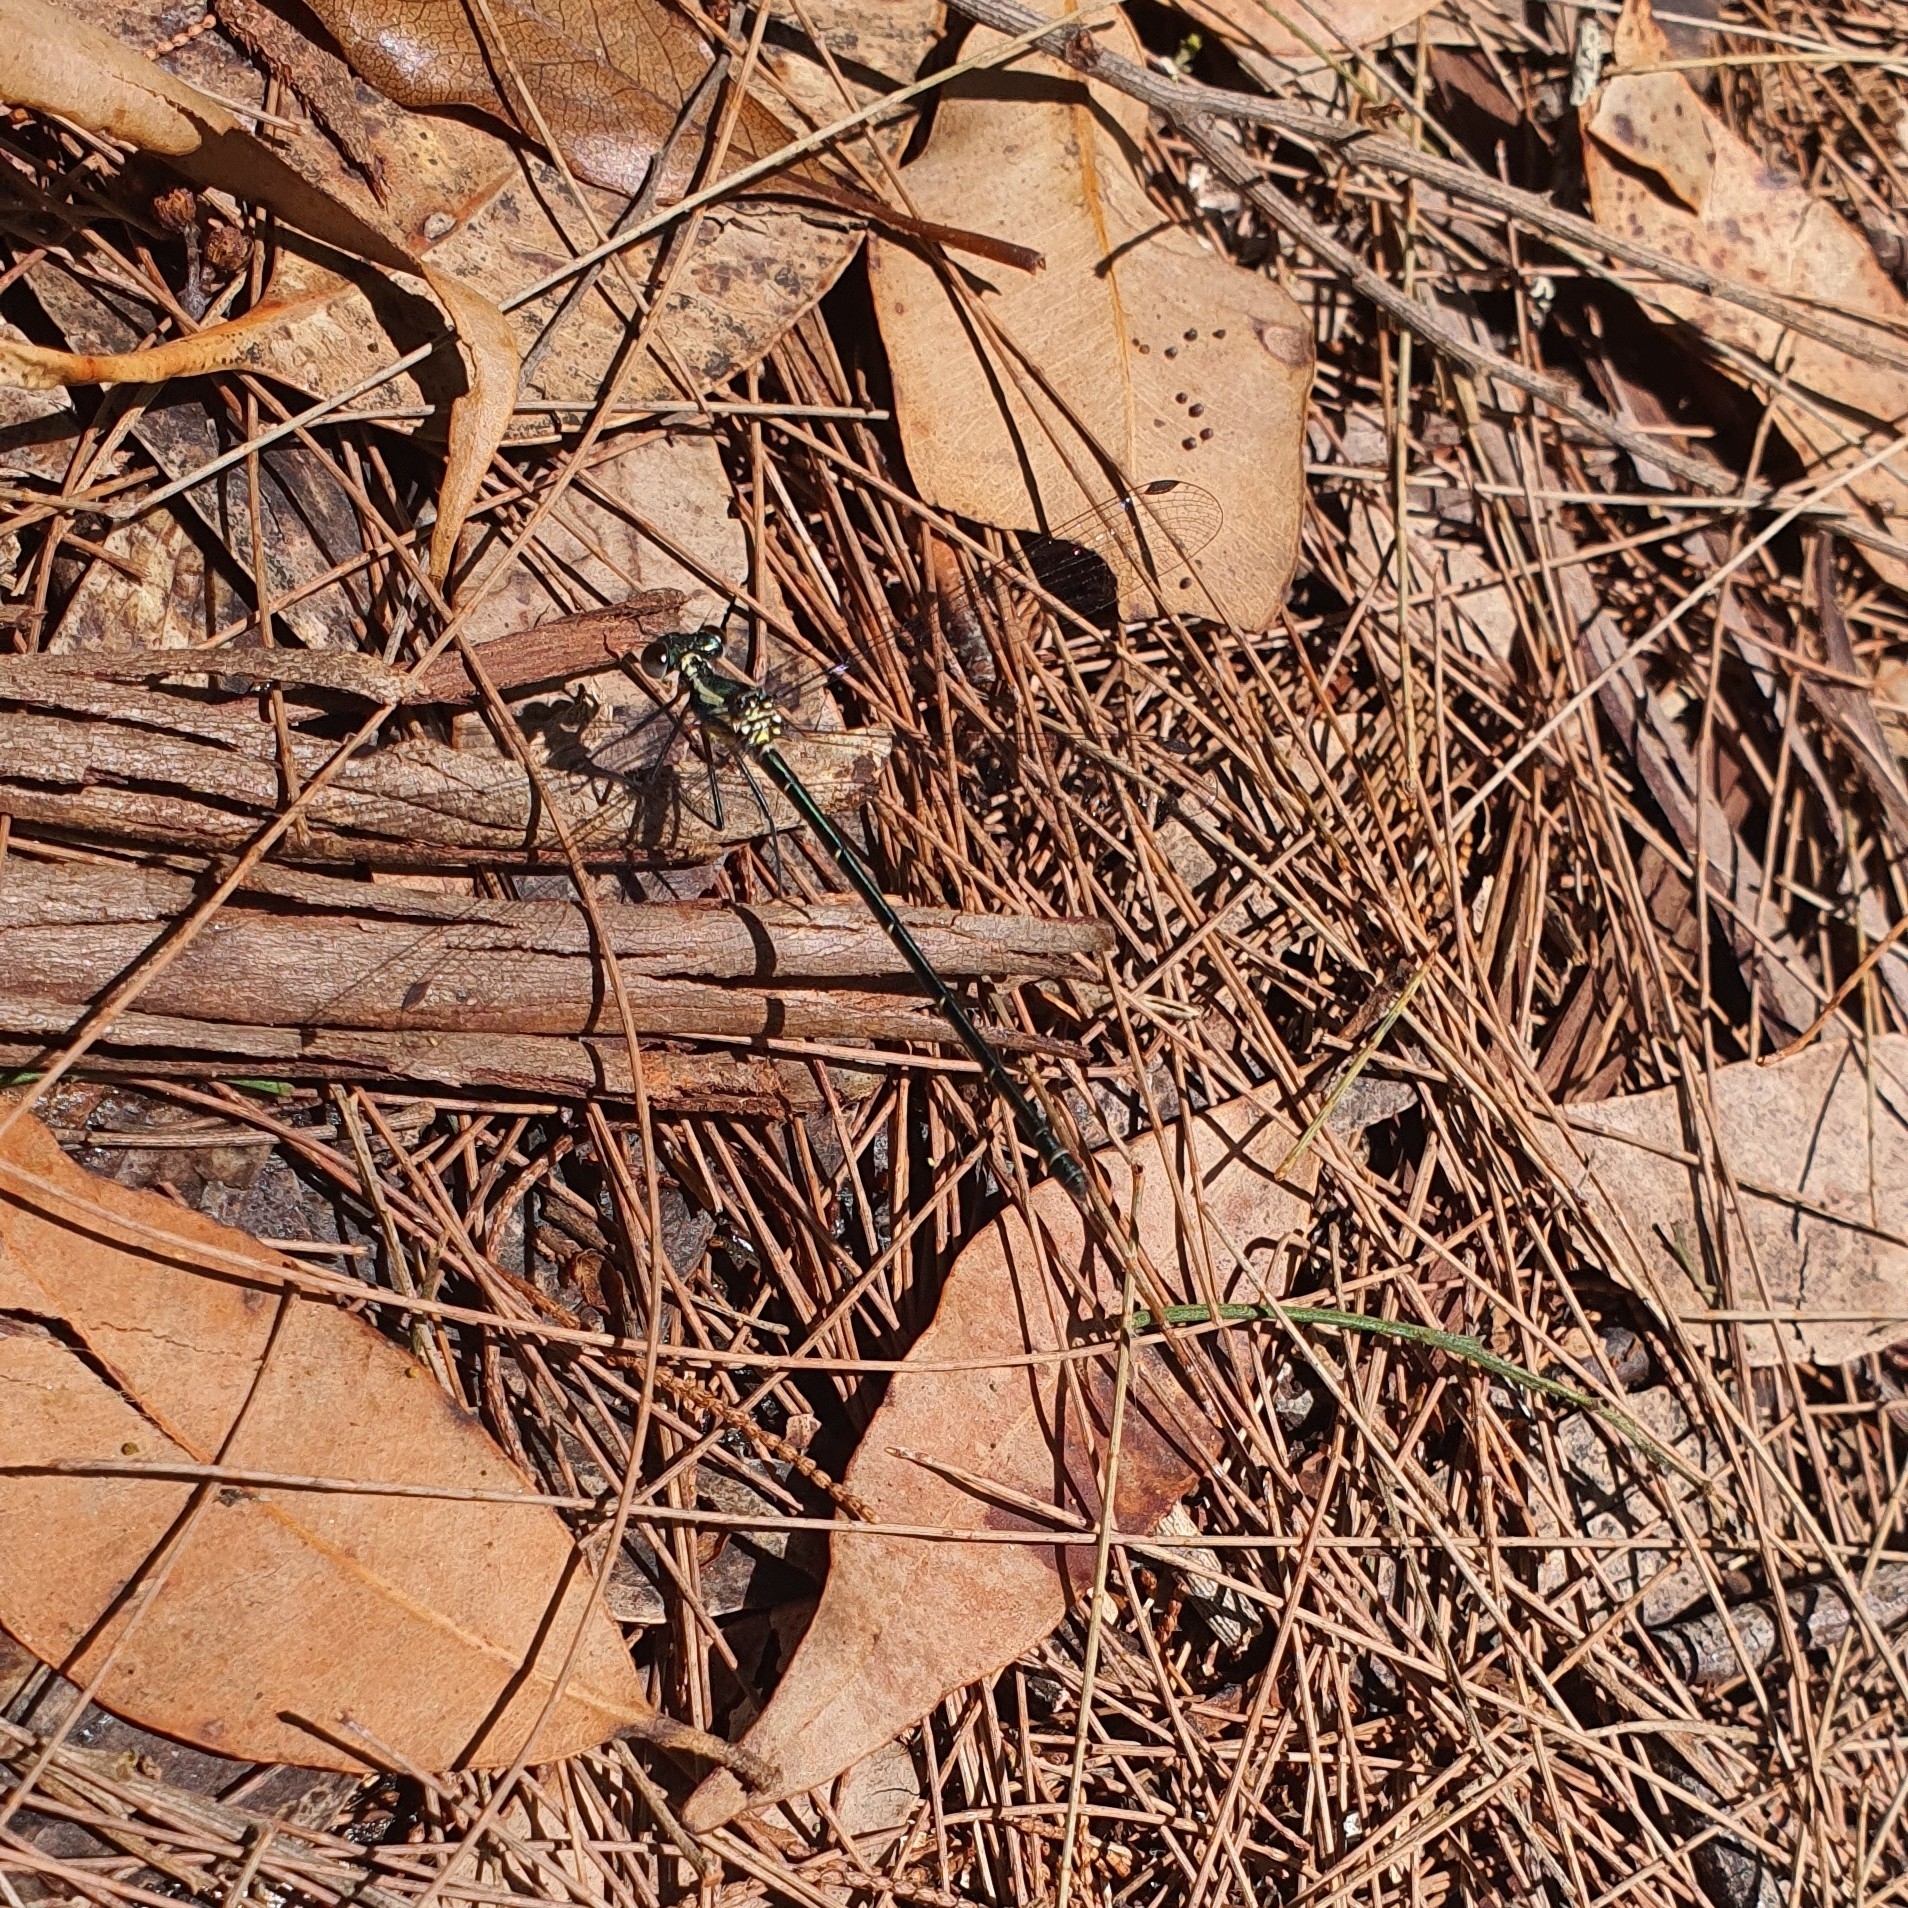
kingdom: Animalia
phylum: Arthropoda
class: Insecta
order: Odonata
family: Argiolestidae
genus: Austroargiolestes
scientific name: Austroargiolestes icteromelas
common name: Common flatwing
